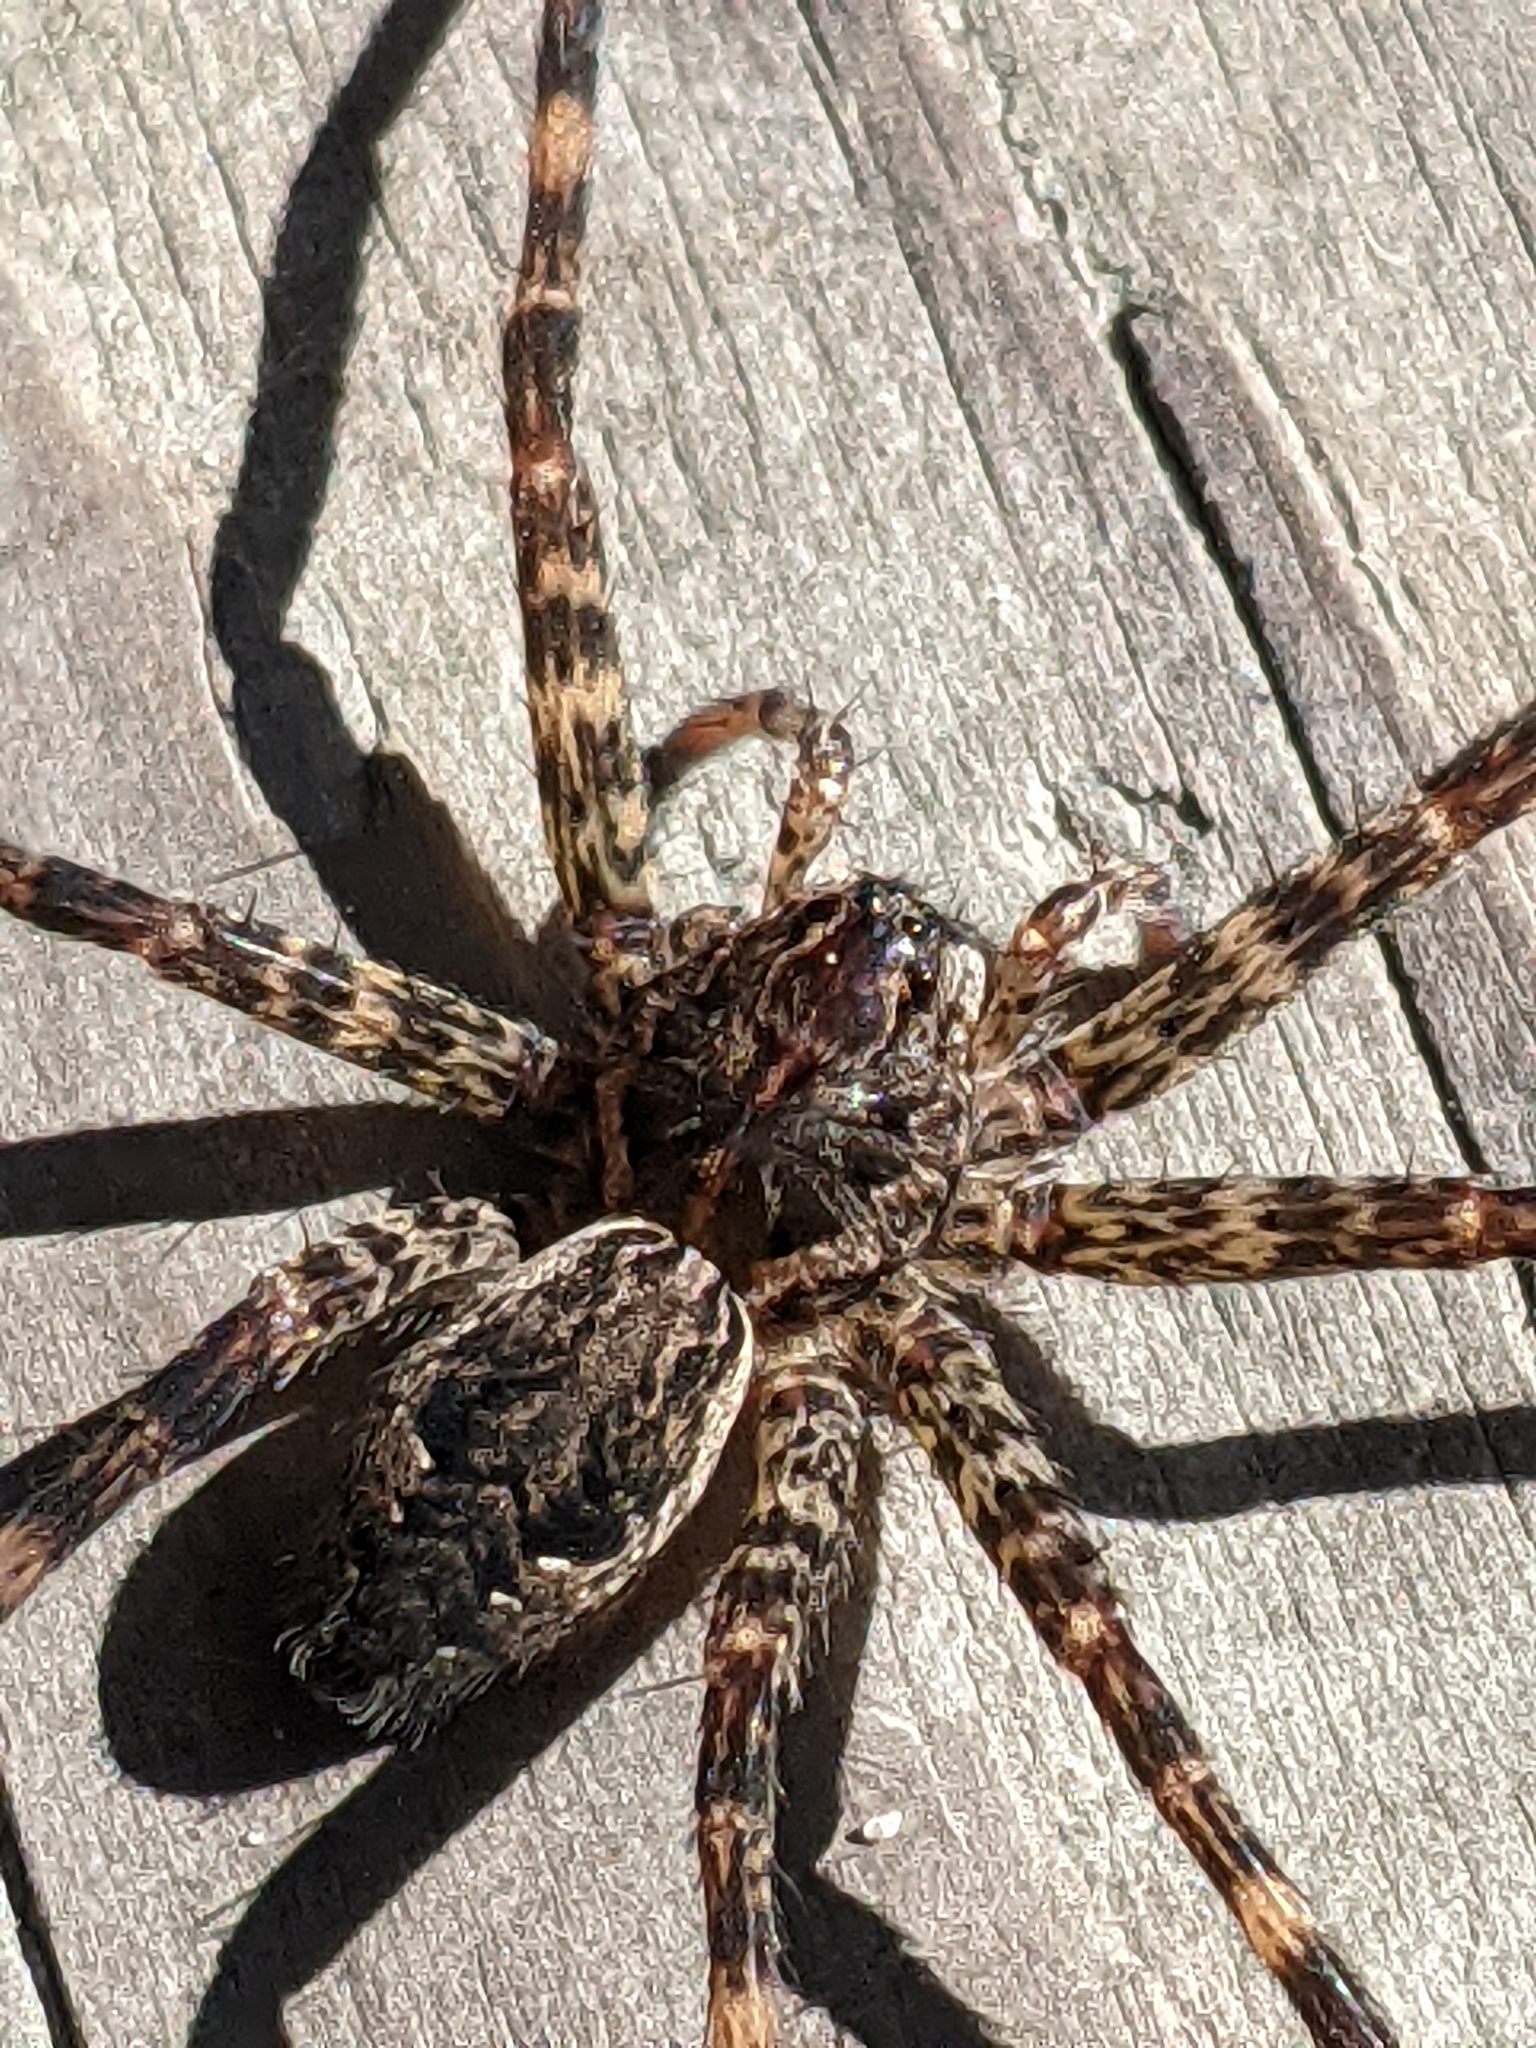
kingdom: Animalia
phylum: Arthropoda
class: Arachnida
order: Araneae
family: Pisauridae
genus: Dolomedes
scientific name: Dolomedes tenebrosus
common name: Dark fishing spider
